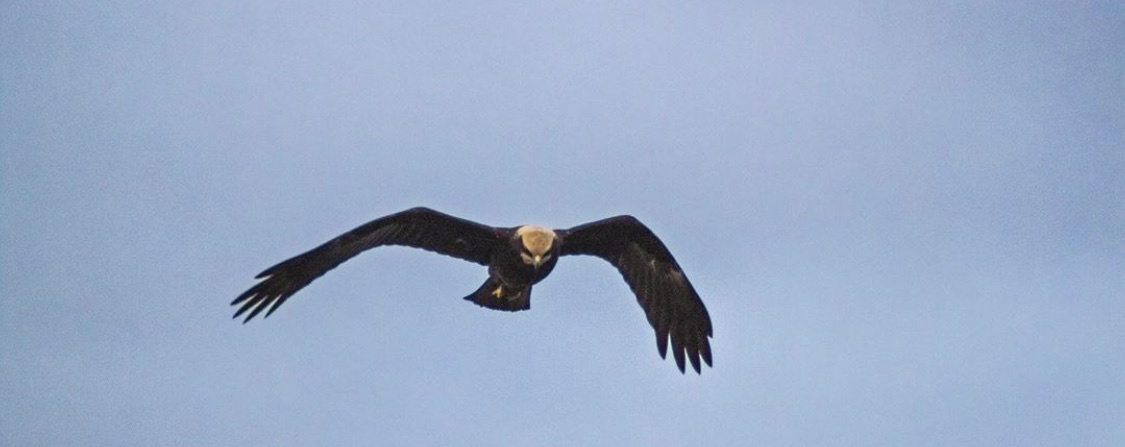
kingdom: Animalia
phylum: Chordata
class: Aves
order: Accipitriformes
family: Accipitridae
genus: Circus
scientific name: Circus aeruginosus
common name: Western marsh harrier
